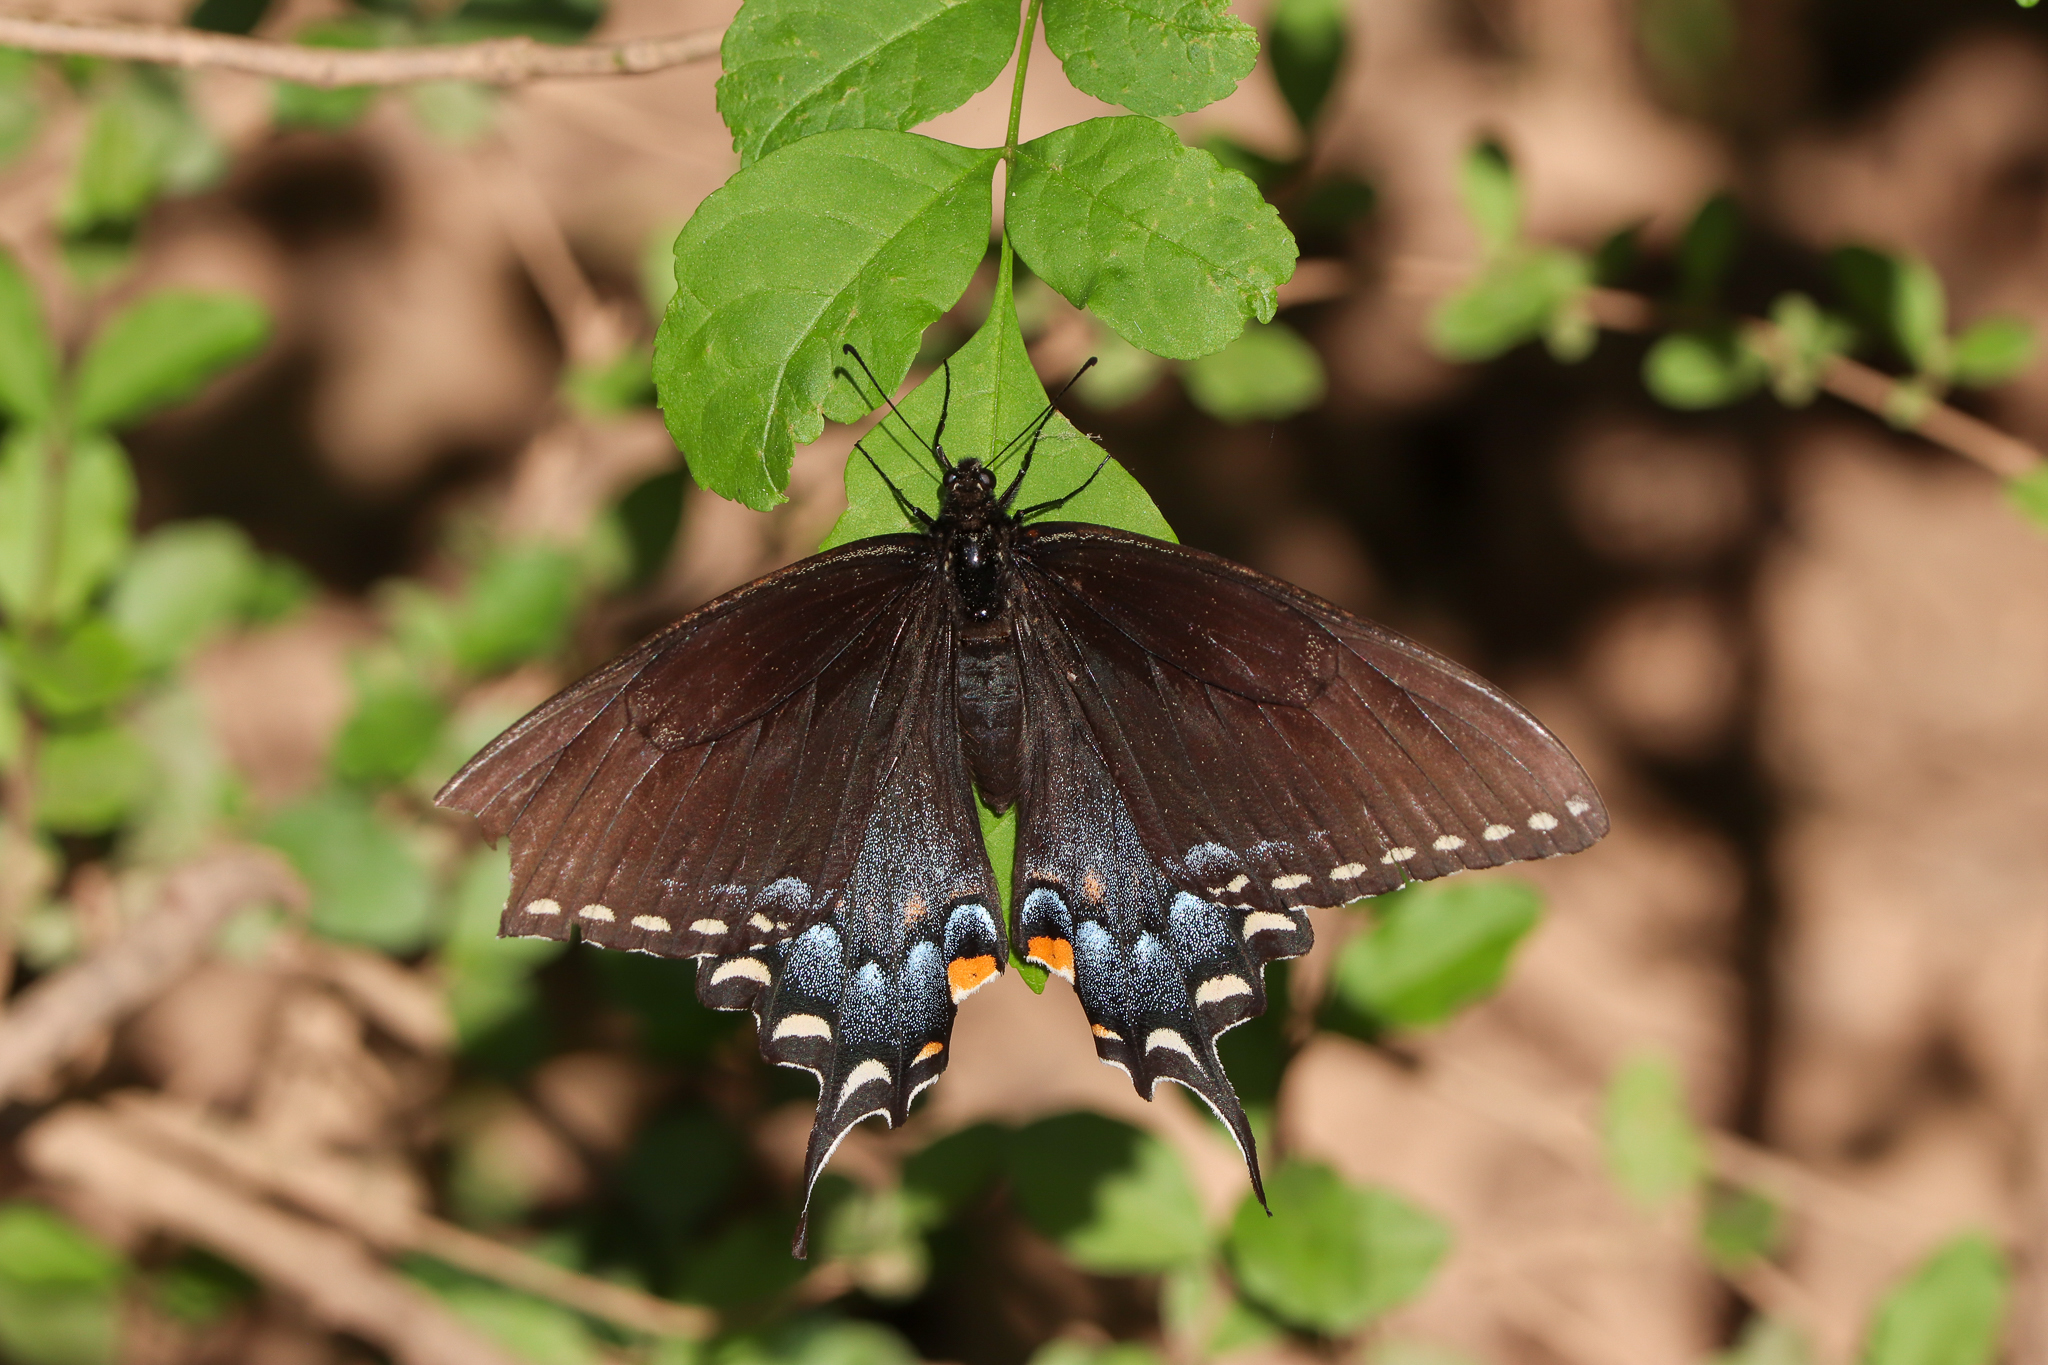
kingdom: Animalia
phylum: Arthropoda
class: Insecta
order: Lepidoptera
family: Papilionidae
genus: Papilio
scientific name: Papilio glaucus
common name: Tiger swallowtail
